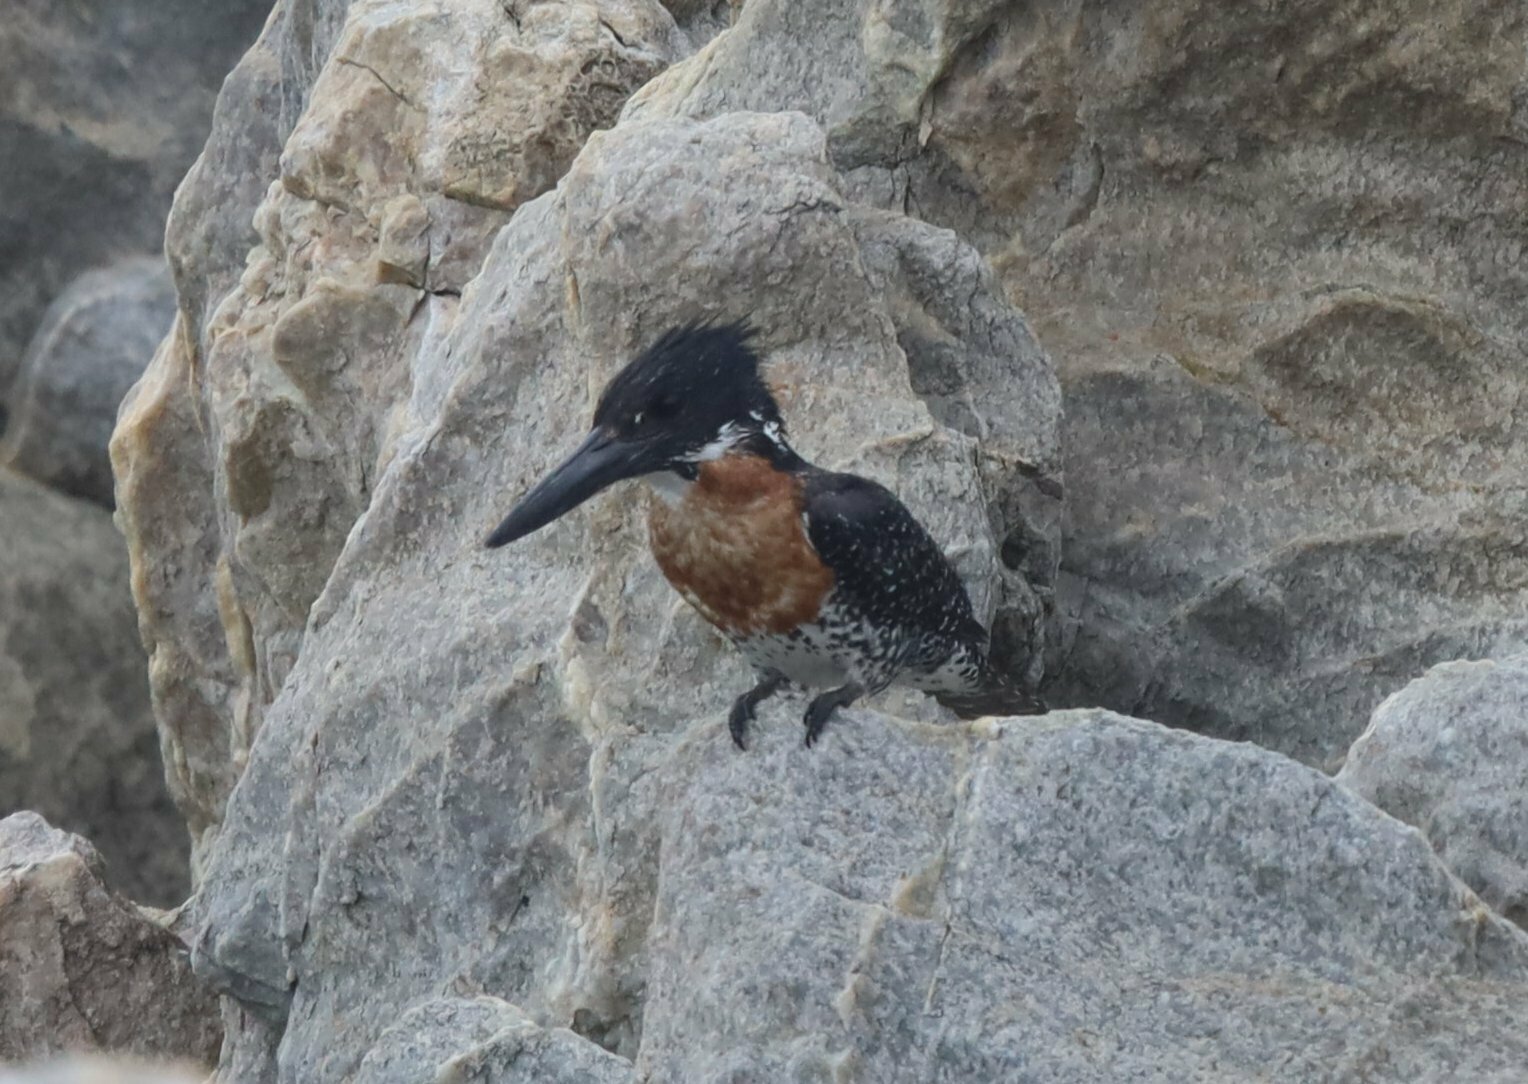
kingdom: Animalia
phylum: Chordata
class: Aves
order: Coraciiformes
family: Alcedinidae
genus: Megaceryle
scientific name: Megaceryle maxima
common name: Giant kingfisher
